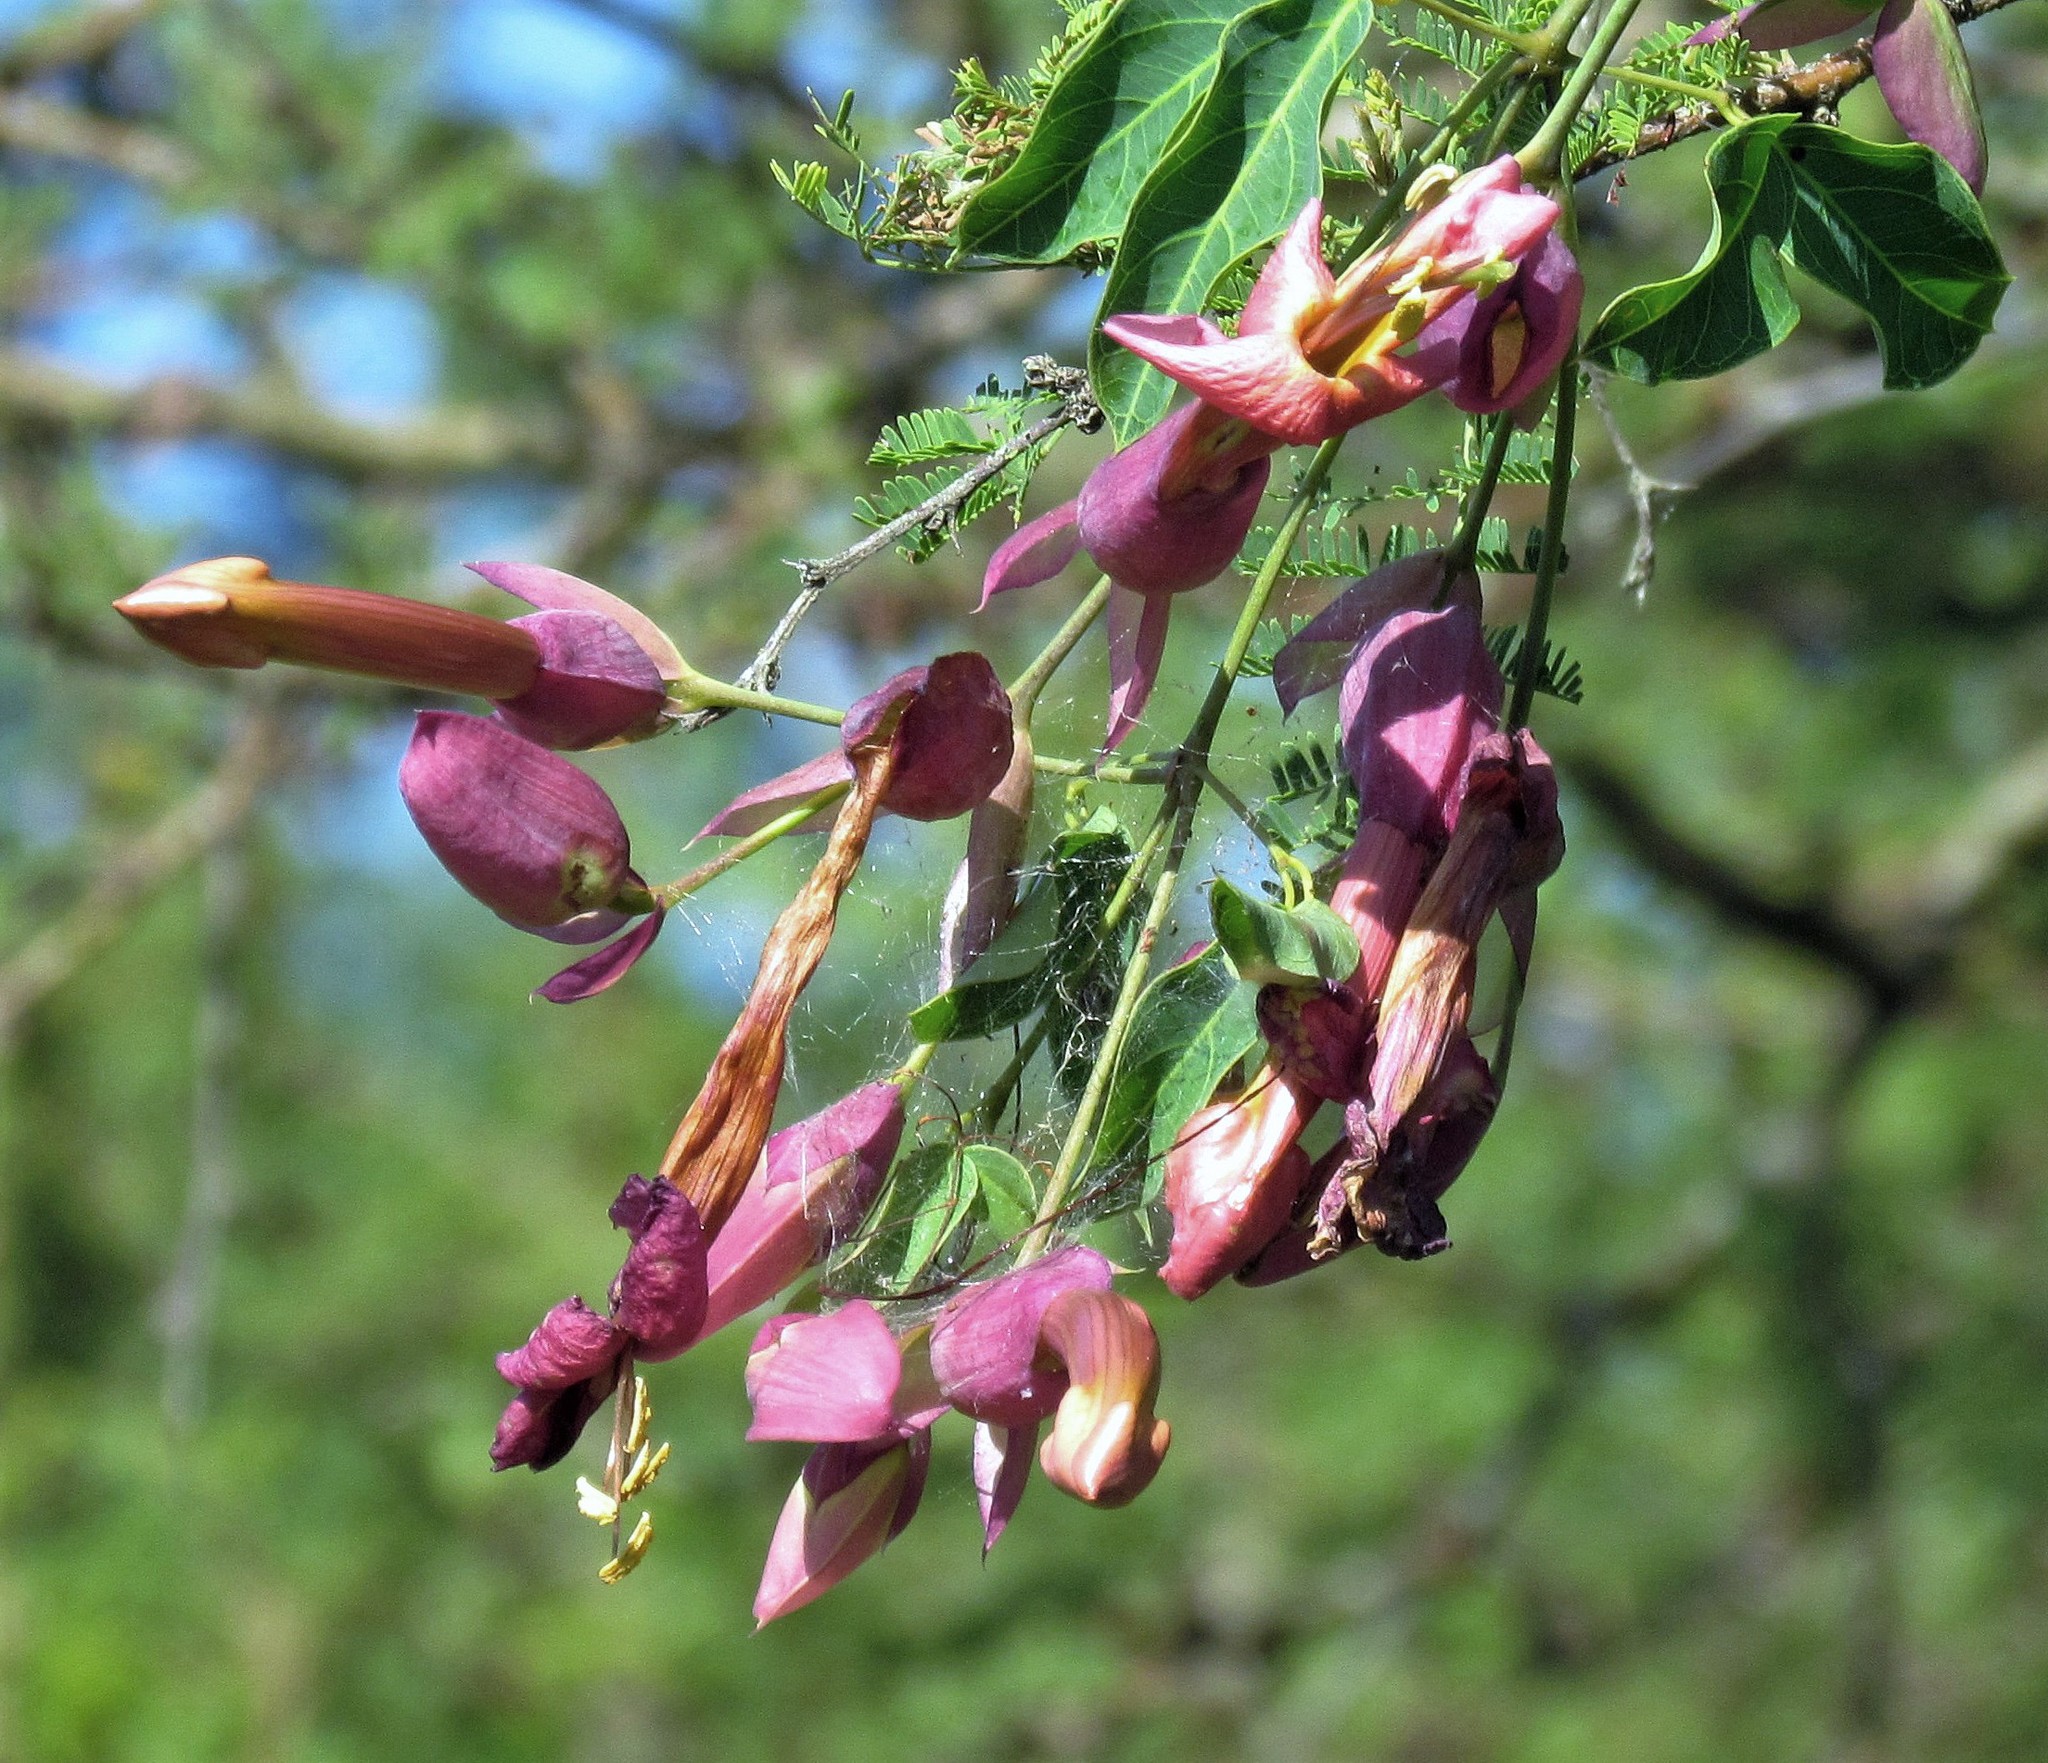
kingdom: Plantae
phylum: Tracheophyta
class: Magnoliopsida
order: Lamiales
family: Bignoniaceae
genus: Dolichandra
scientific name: Dolichandra cynanchoides
